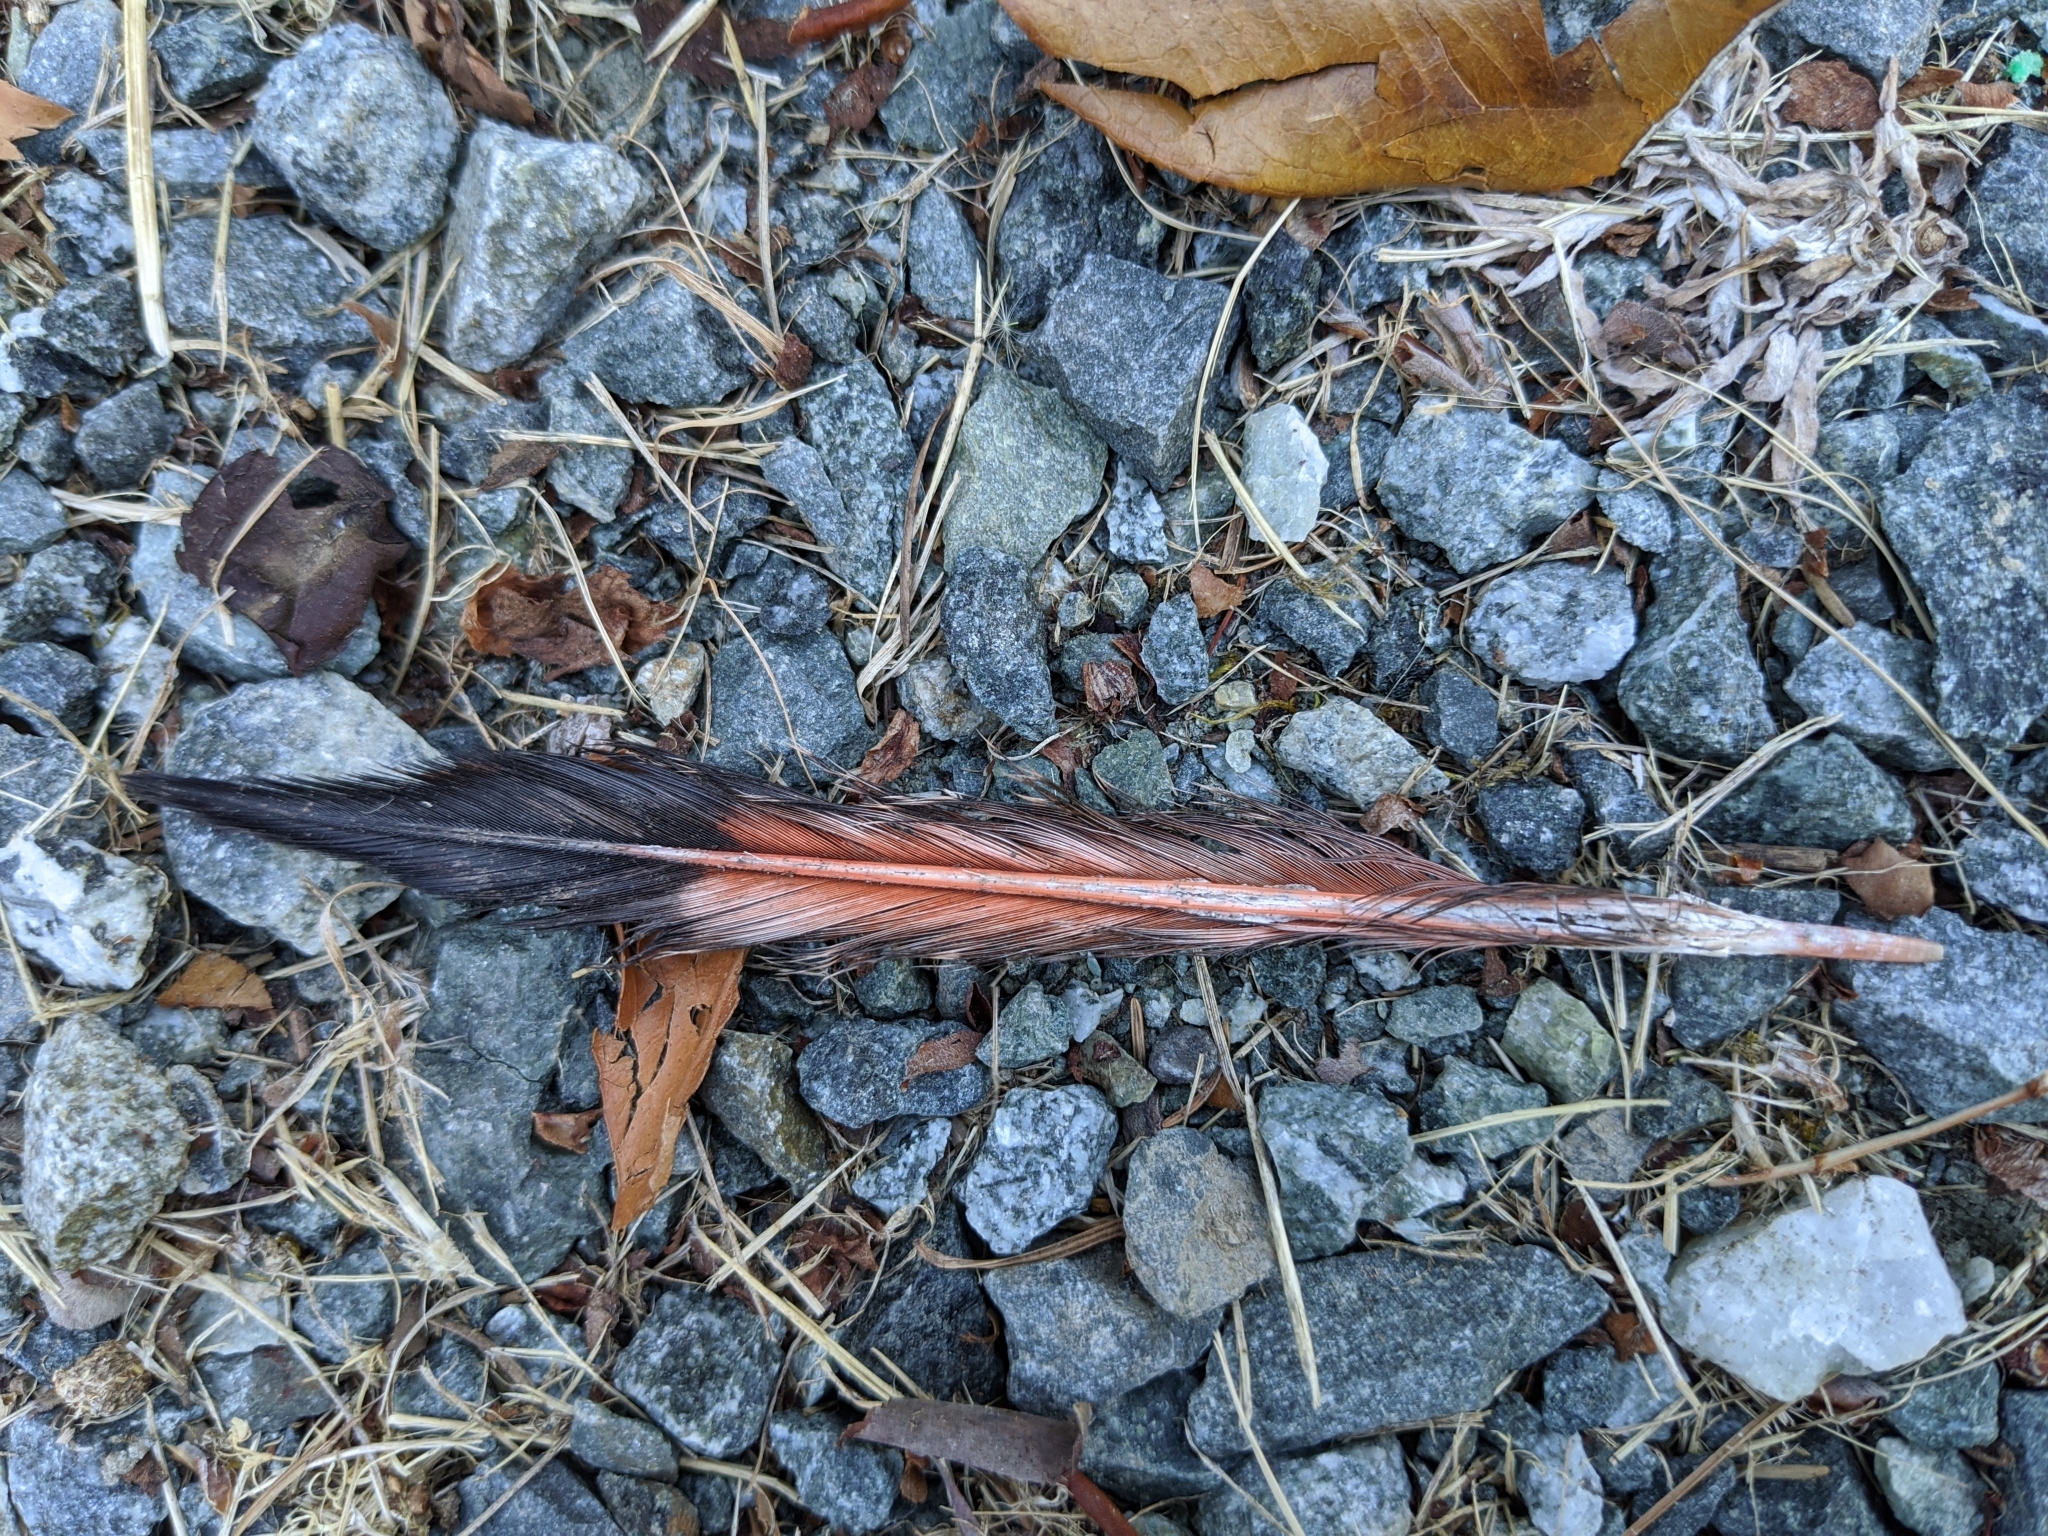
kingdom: Animalia
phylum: Chordata
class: Aves
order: Piciformes
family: Picidae
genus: Colaptes
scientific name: Colaptes auratus
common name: Northern flicker
